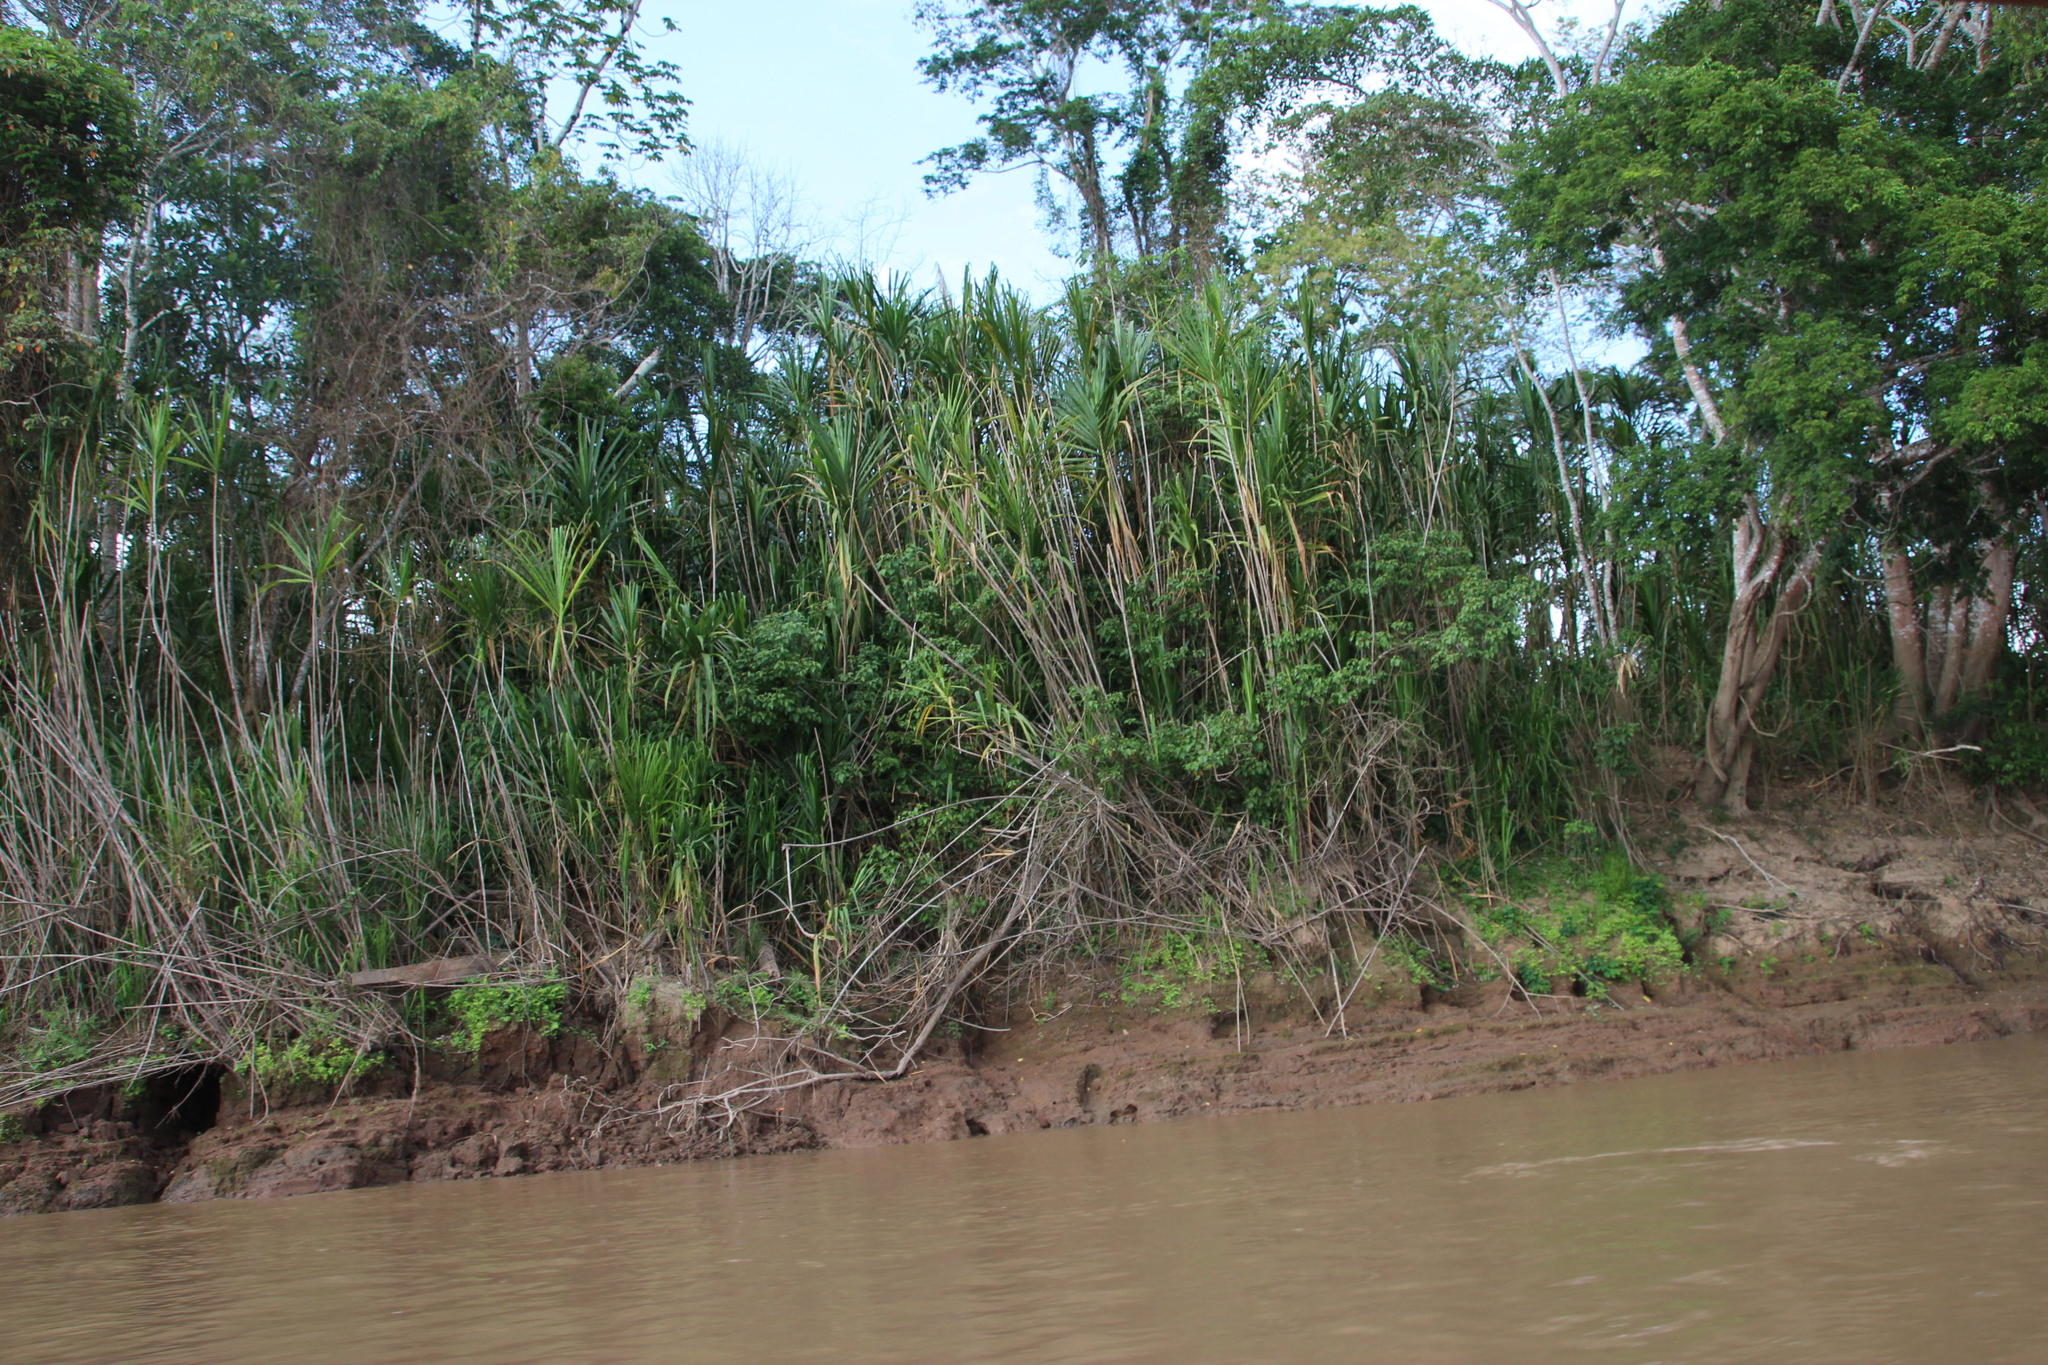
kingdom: Plantae
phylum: Tracheophyta
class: Liliopsida
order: Poales
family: Poaceae
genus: Gynerium
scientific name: Gynerium sagittatum
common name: Wild cane
